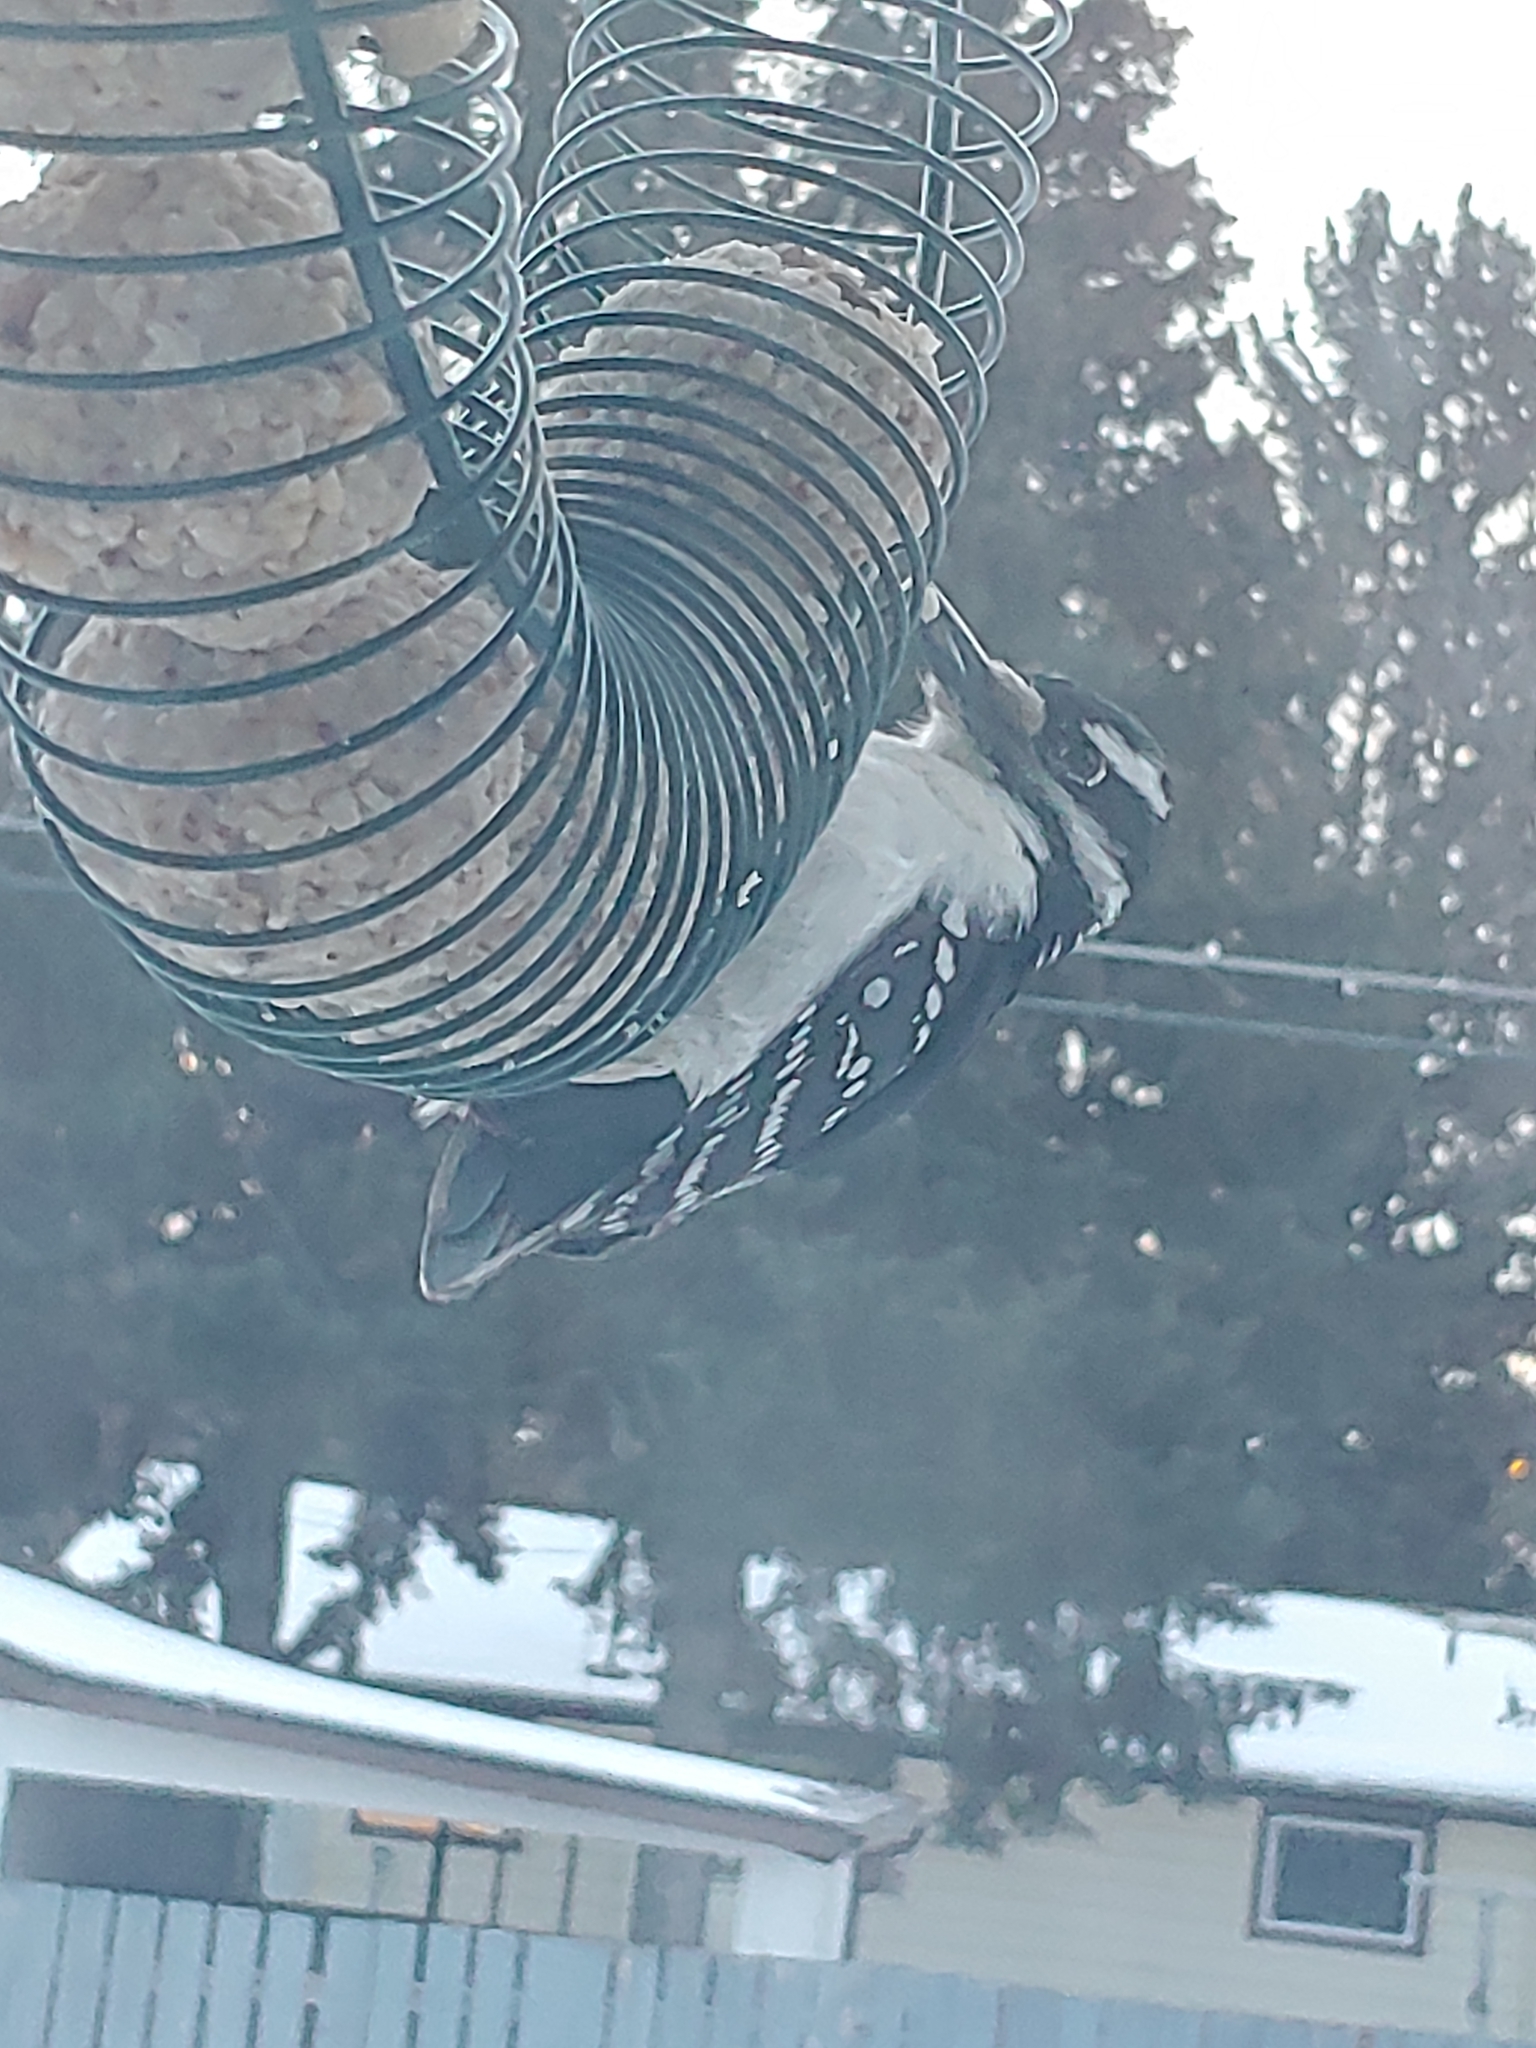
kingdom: Animalia
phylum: Chordata
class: Aves
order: Piciformes
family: Picidae
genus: Leuconotopicus
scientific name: Leuconotopicus villosus
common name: Hairy woodpecker
